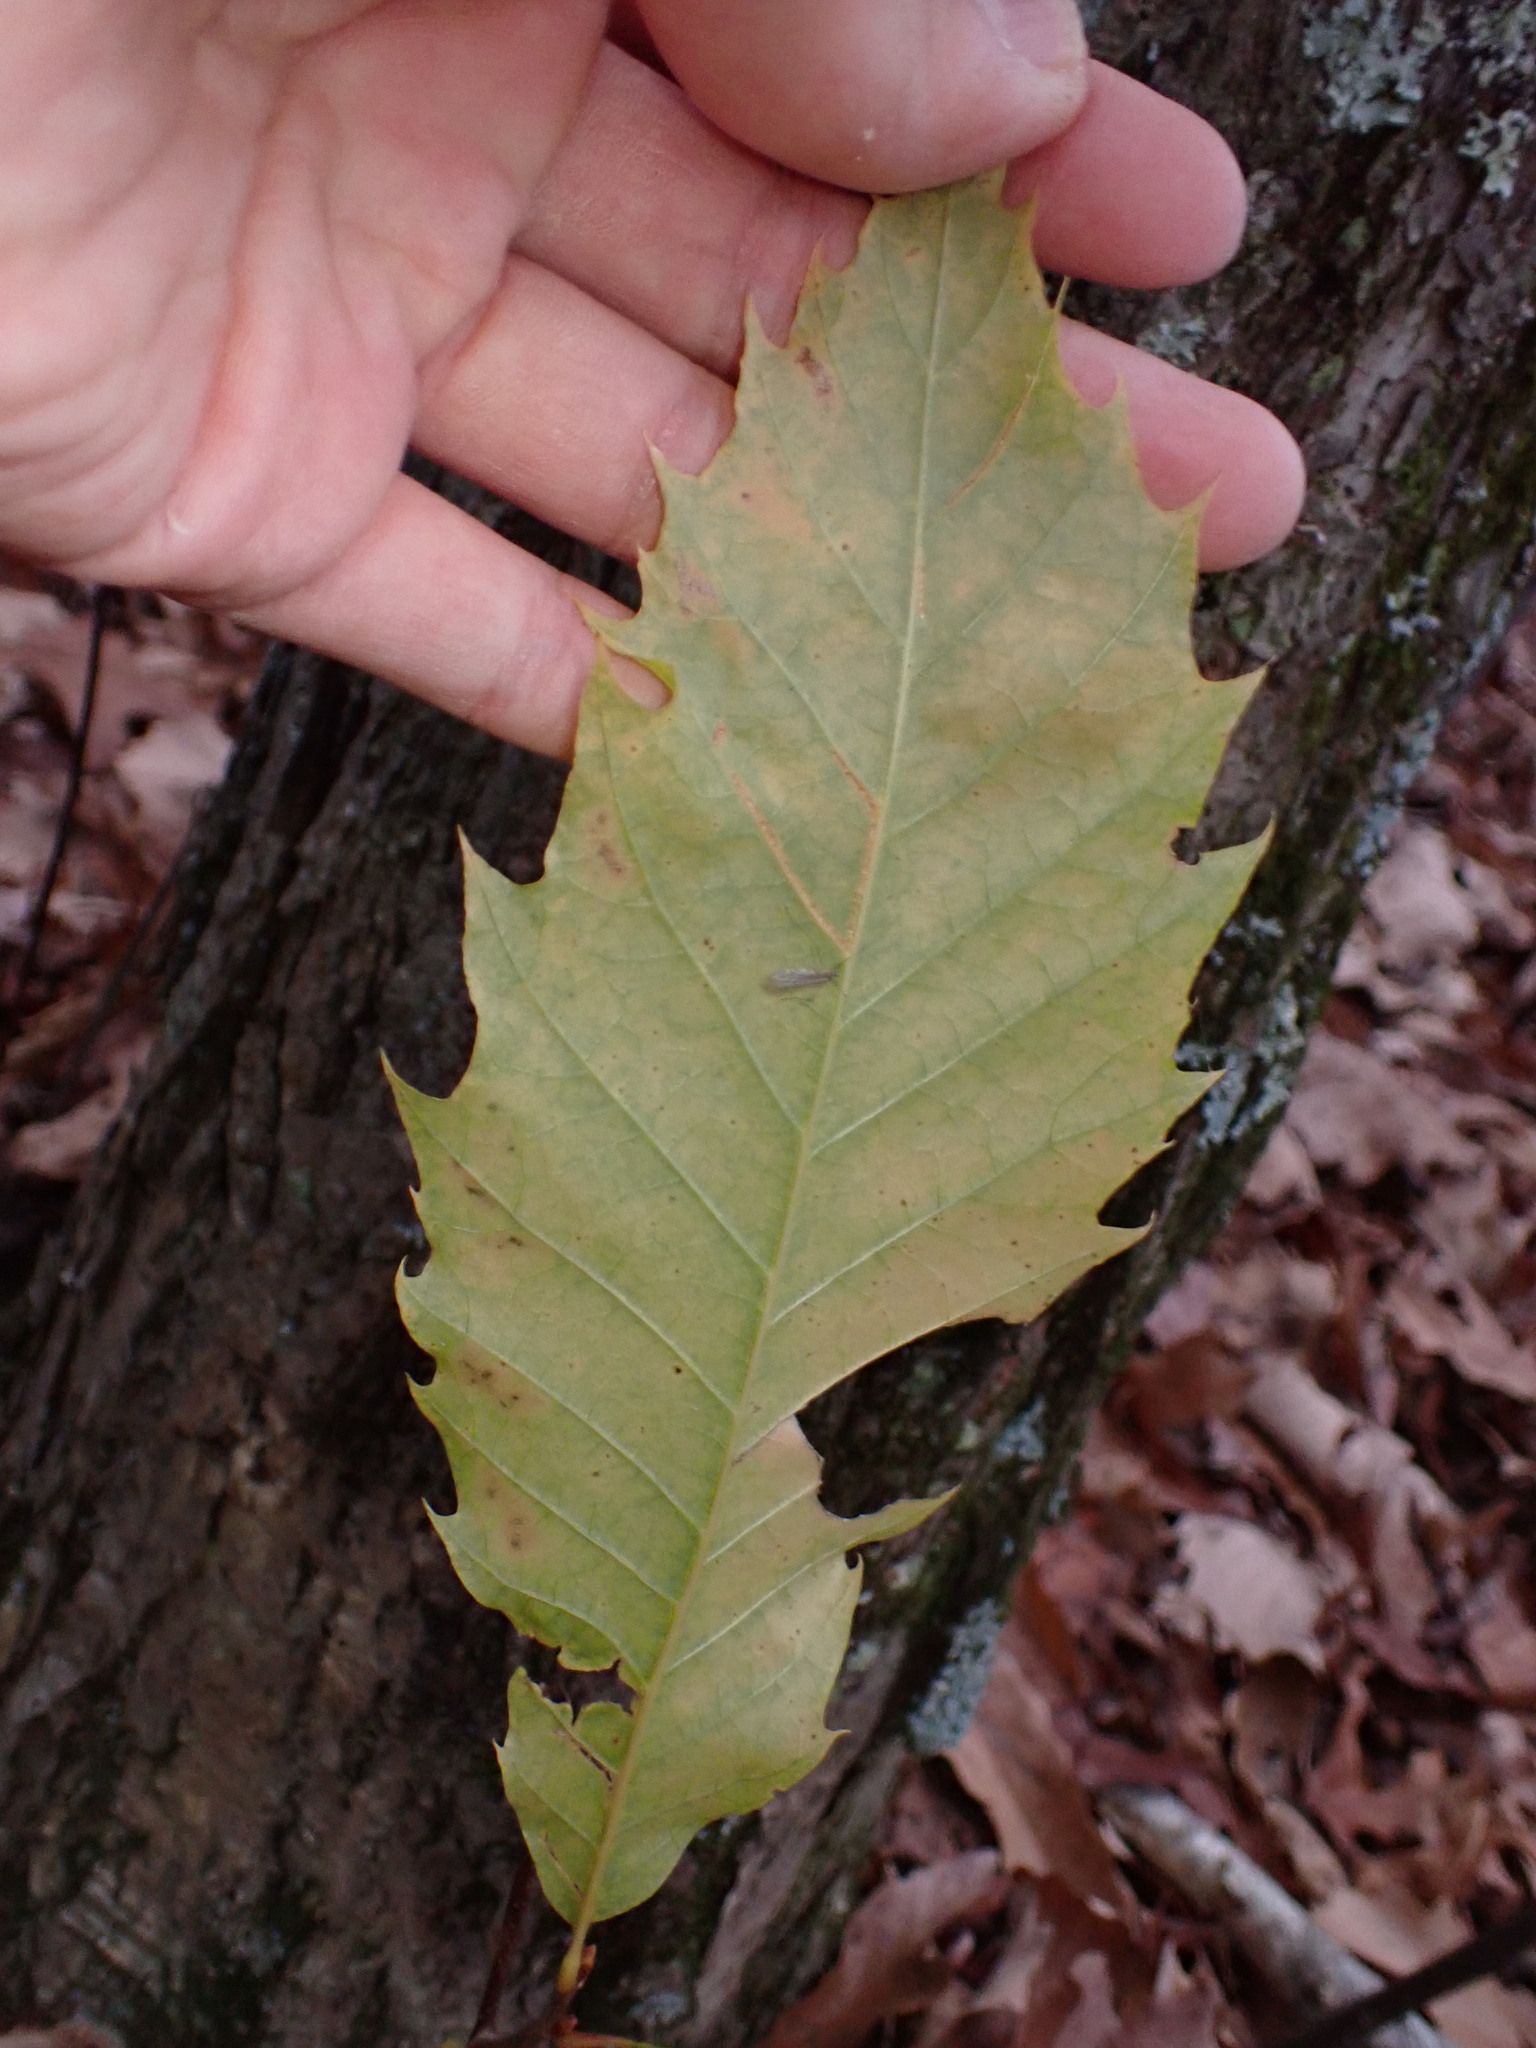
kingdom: Plantae
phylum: Tracheophyta
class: Magnoliopsida
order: Fagales
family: Fagaceae
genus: Castanea
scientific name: Castanea dentata
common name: American chestnut
